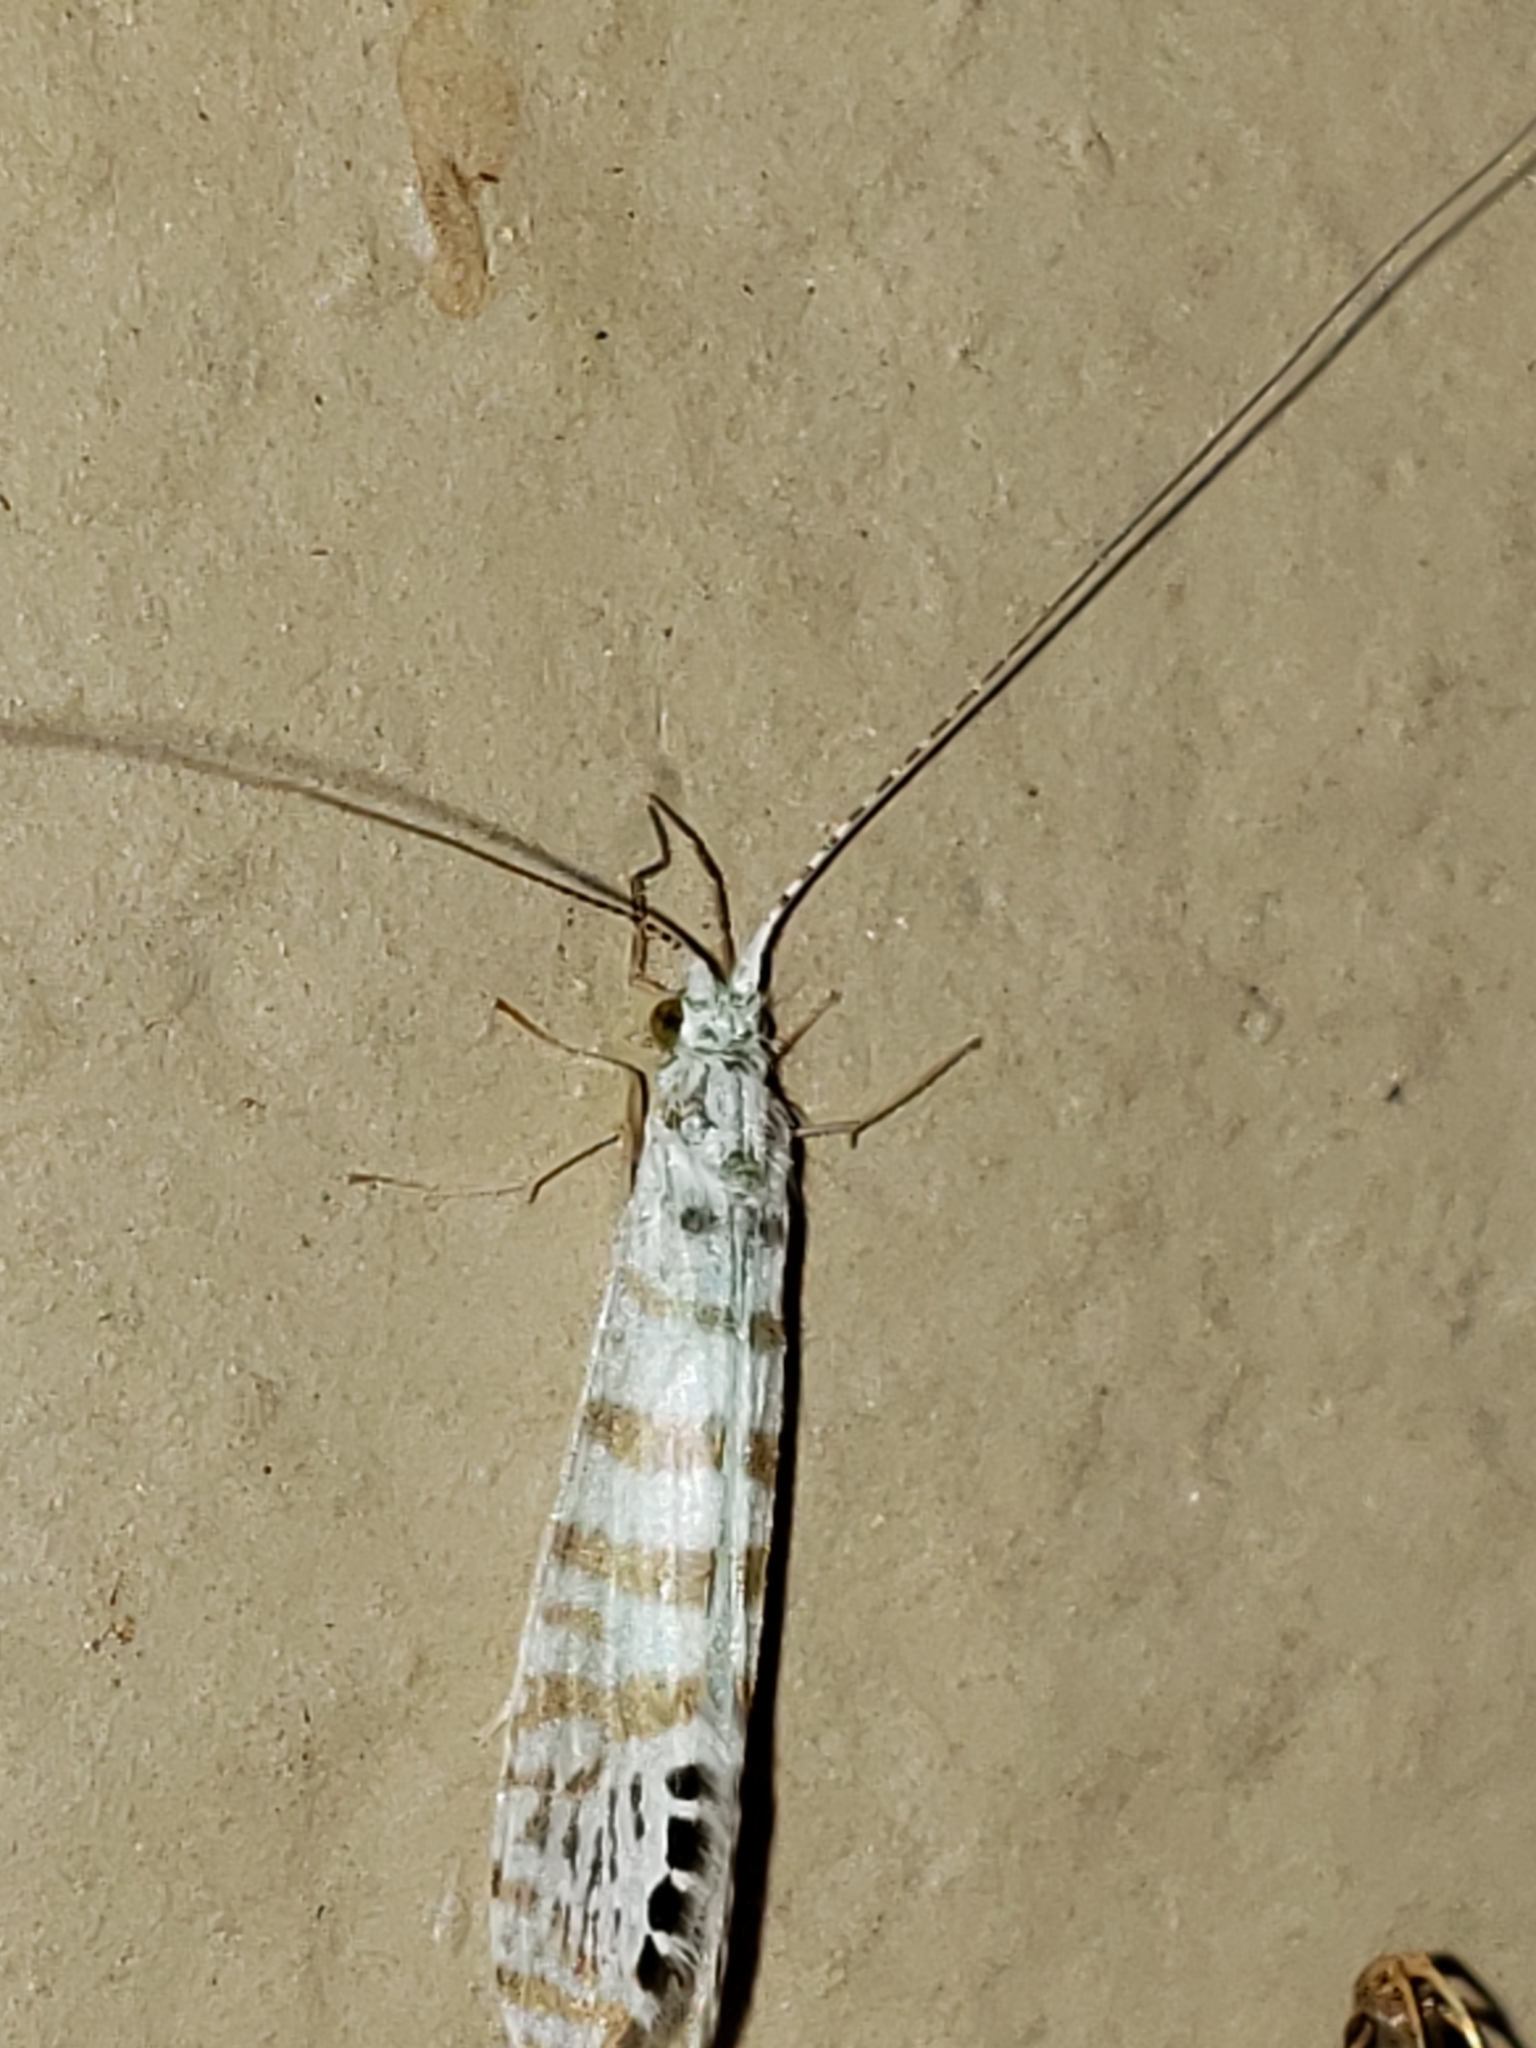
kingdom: Animalia
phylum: Arthropoda
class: Insecta
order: Trichoptera
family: Leptoceridae
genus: Nectopsyche
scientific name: Nectopsyche exquisita
